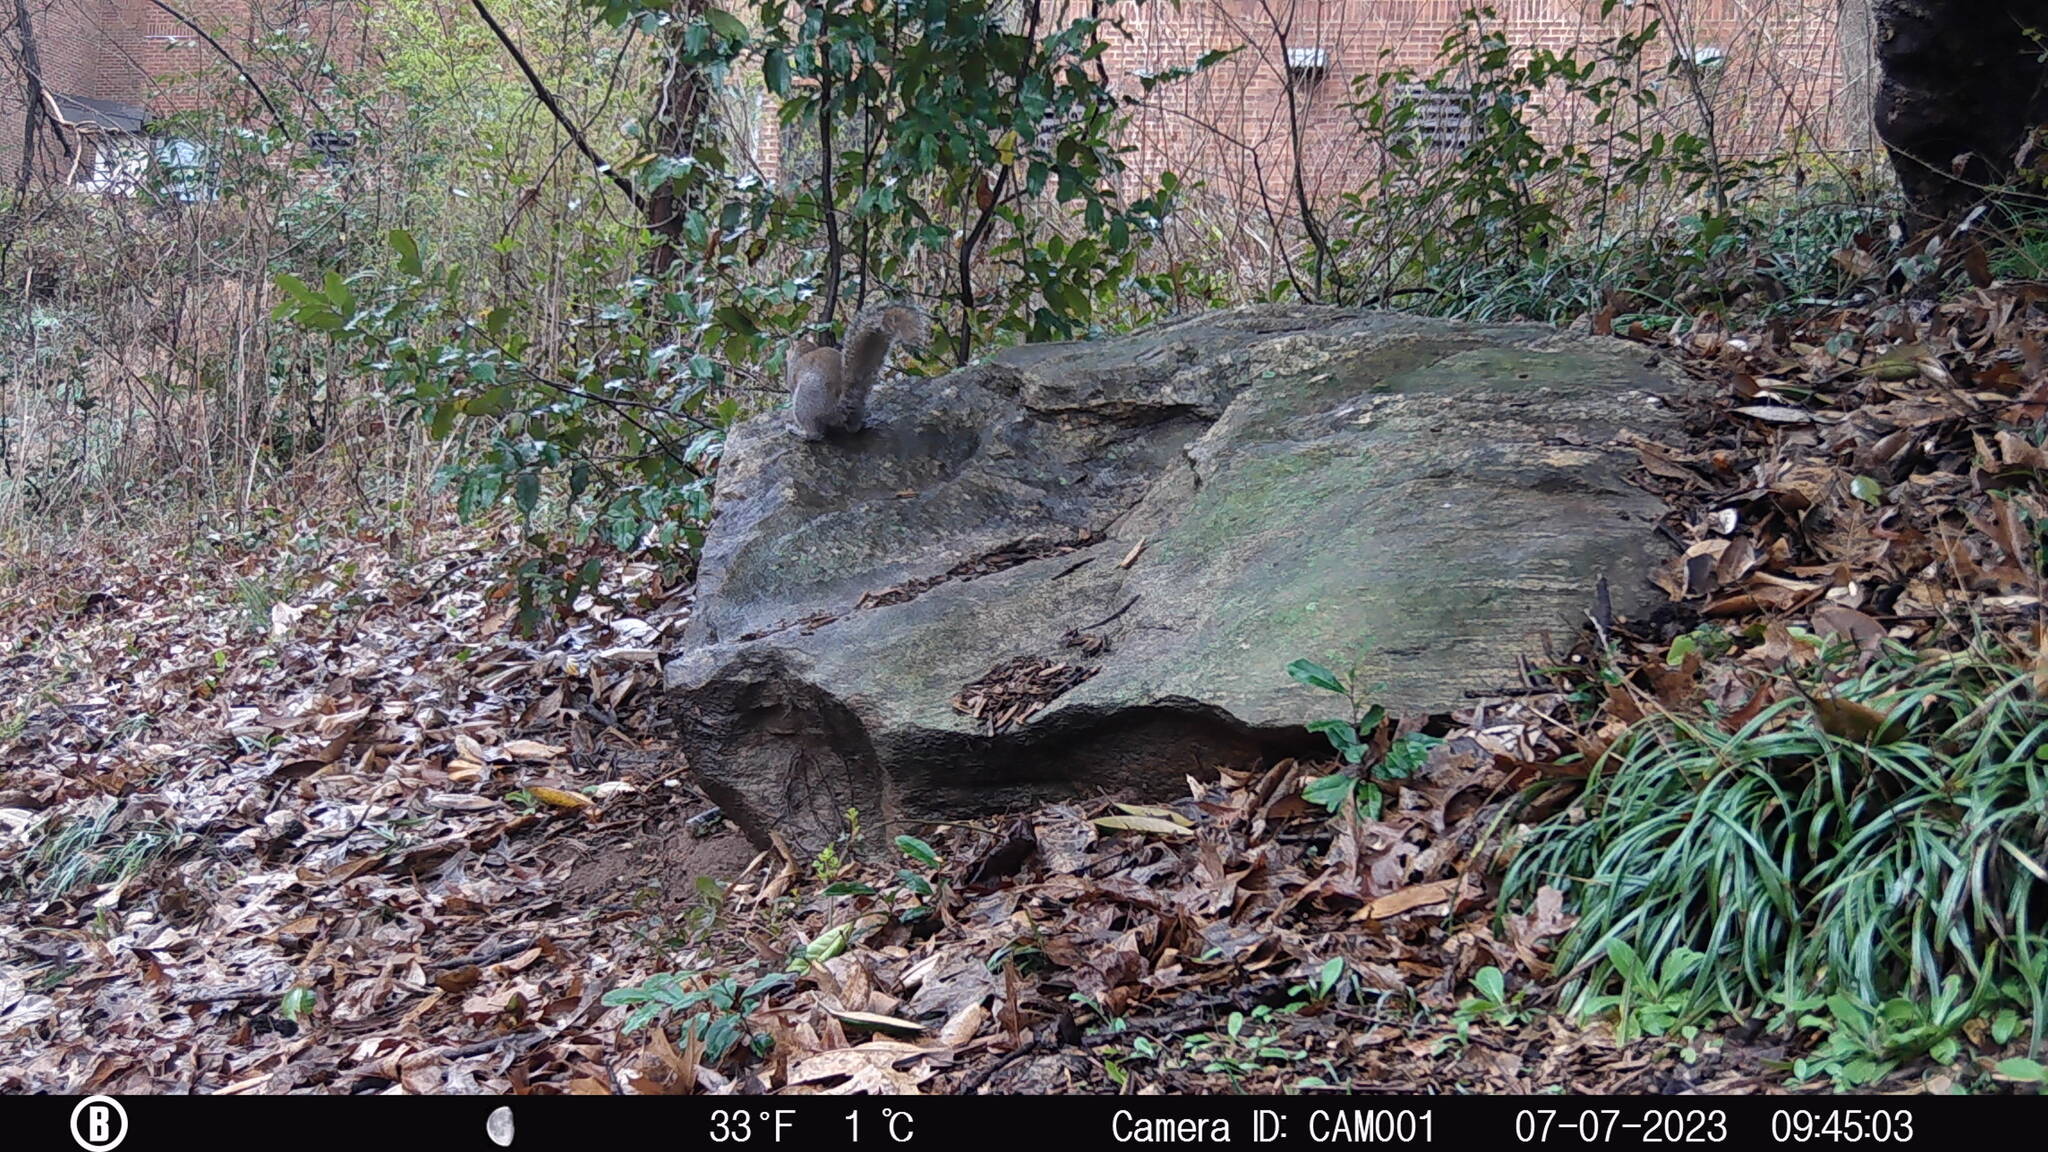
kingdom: Animalia
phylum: Chordata
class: Mammalia
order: Rodentia
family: Sciuridae
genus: Sciurus
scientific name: Sciurus carolinensis
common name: Eastern gray squirrel
